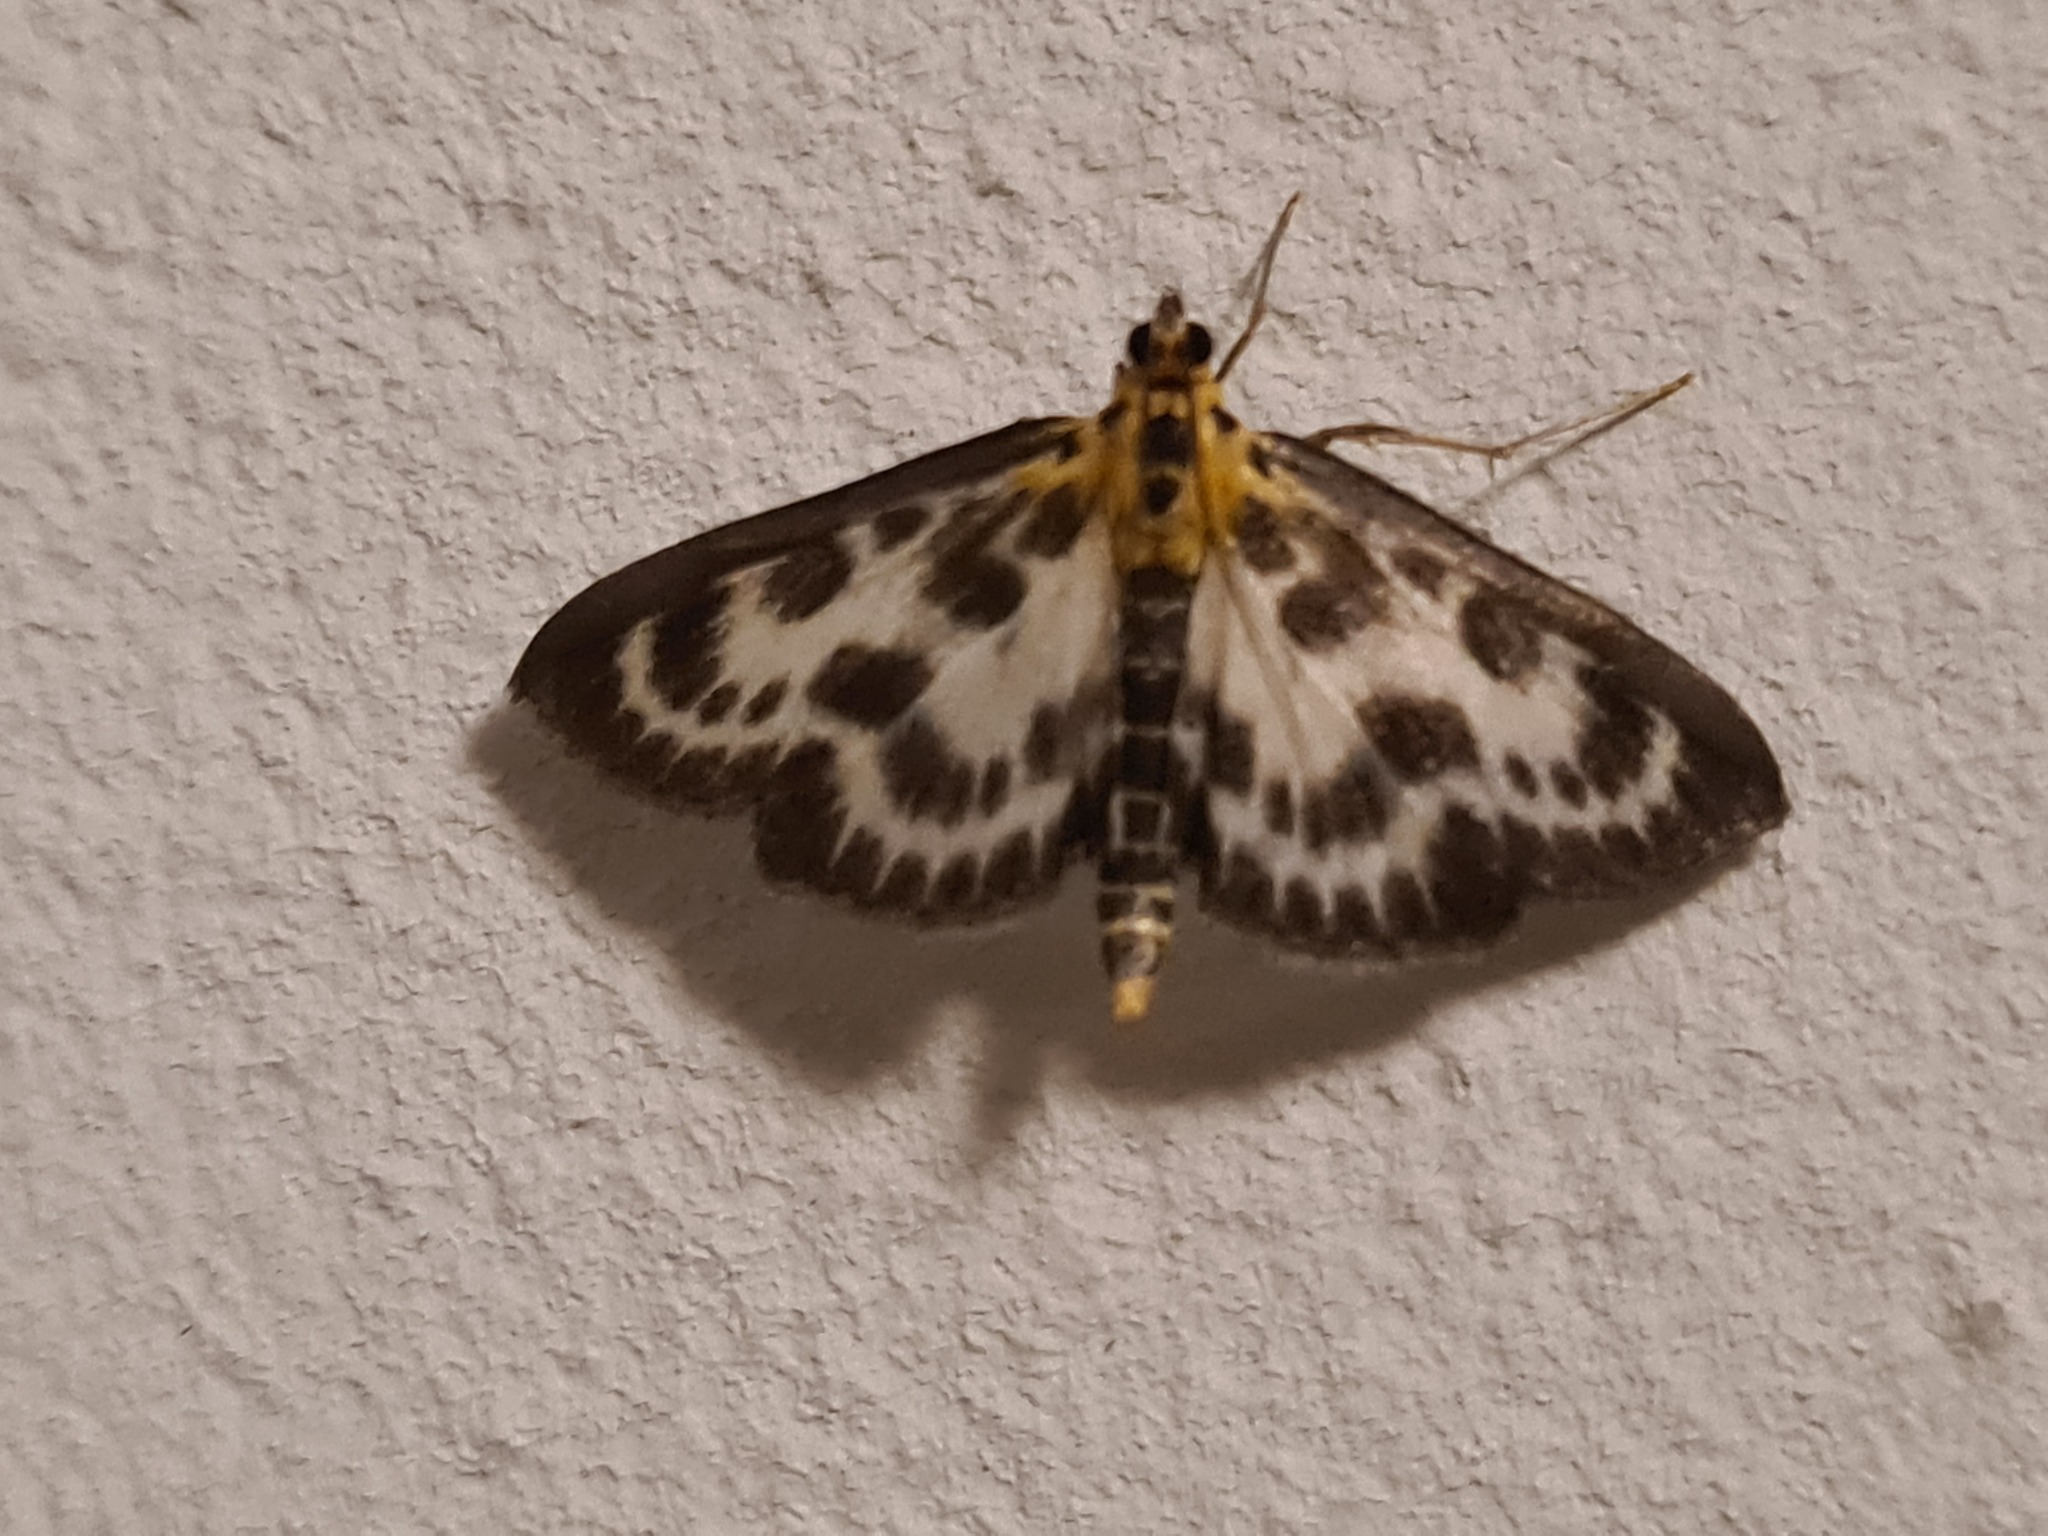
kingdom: Animalia
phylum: Arthropoda
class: Insecta
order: Lepidoptera
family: Crambidae
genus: Anania
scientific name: Anania hortulata
